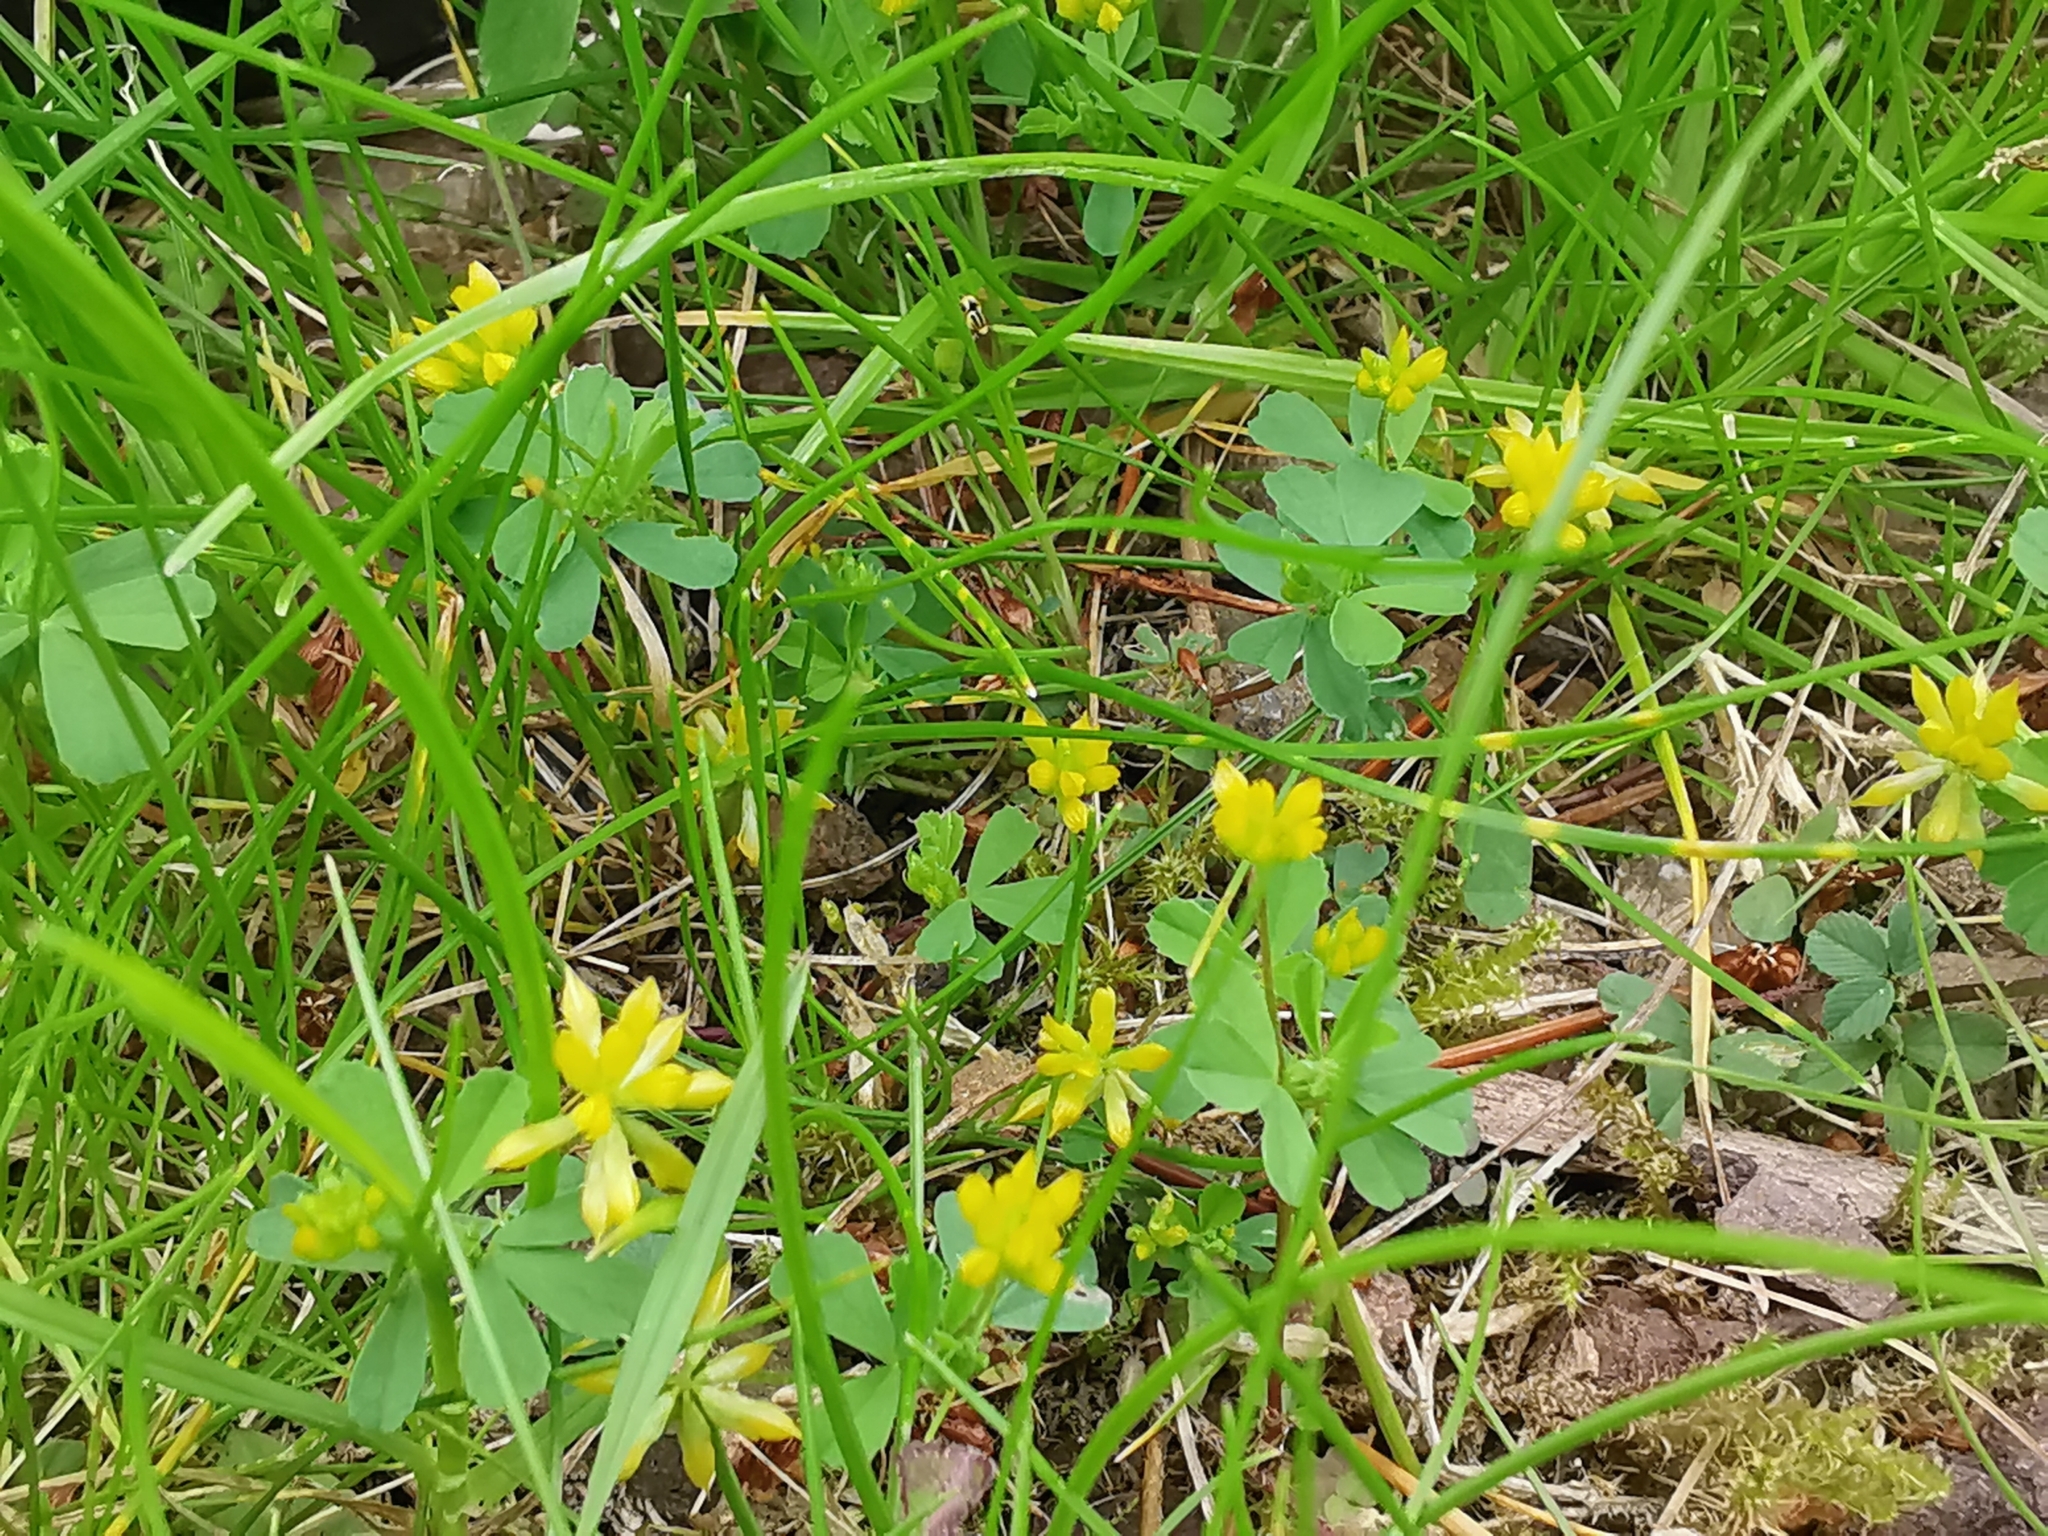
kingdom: Plantae
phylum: Tracheophyta
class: Magnoliopsida
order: Fabales
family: Fabaceae
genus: Trifolium
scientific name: Trifolium dubium
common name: Suckling clover
